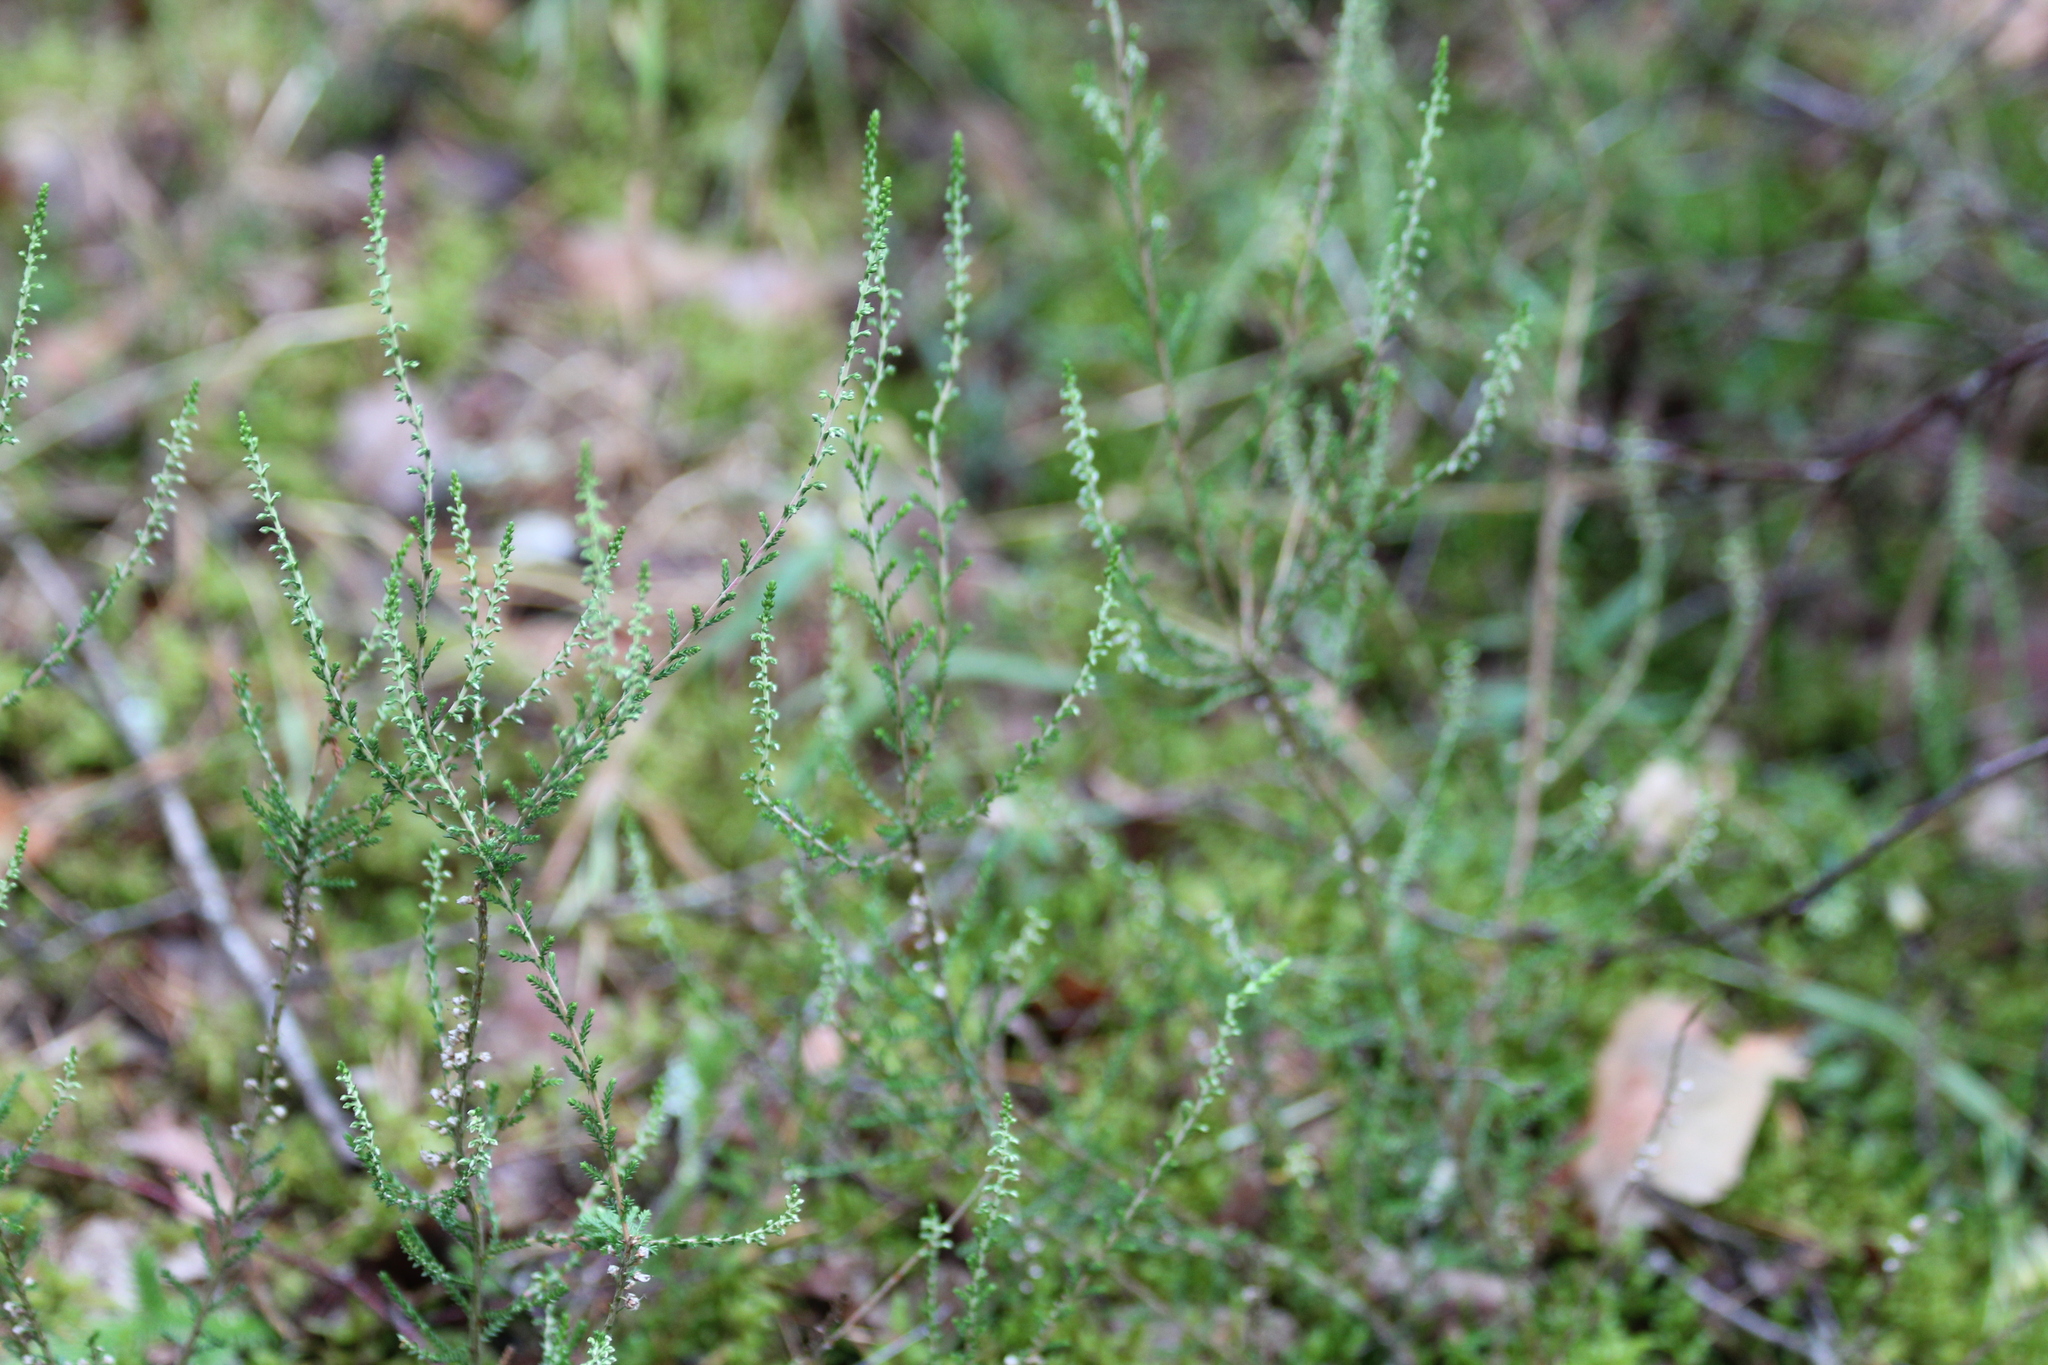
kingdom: Plantae
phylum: Tracheophyta
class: Magnoliopsida
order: Ericales
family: Ericaceae
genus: Calluna
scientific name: Calluna vulgaris
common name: Heather
